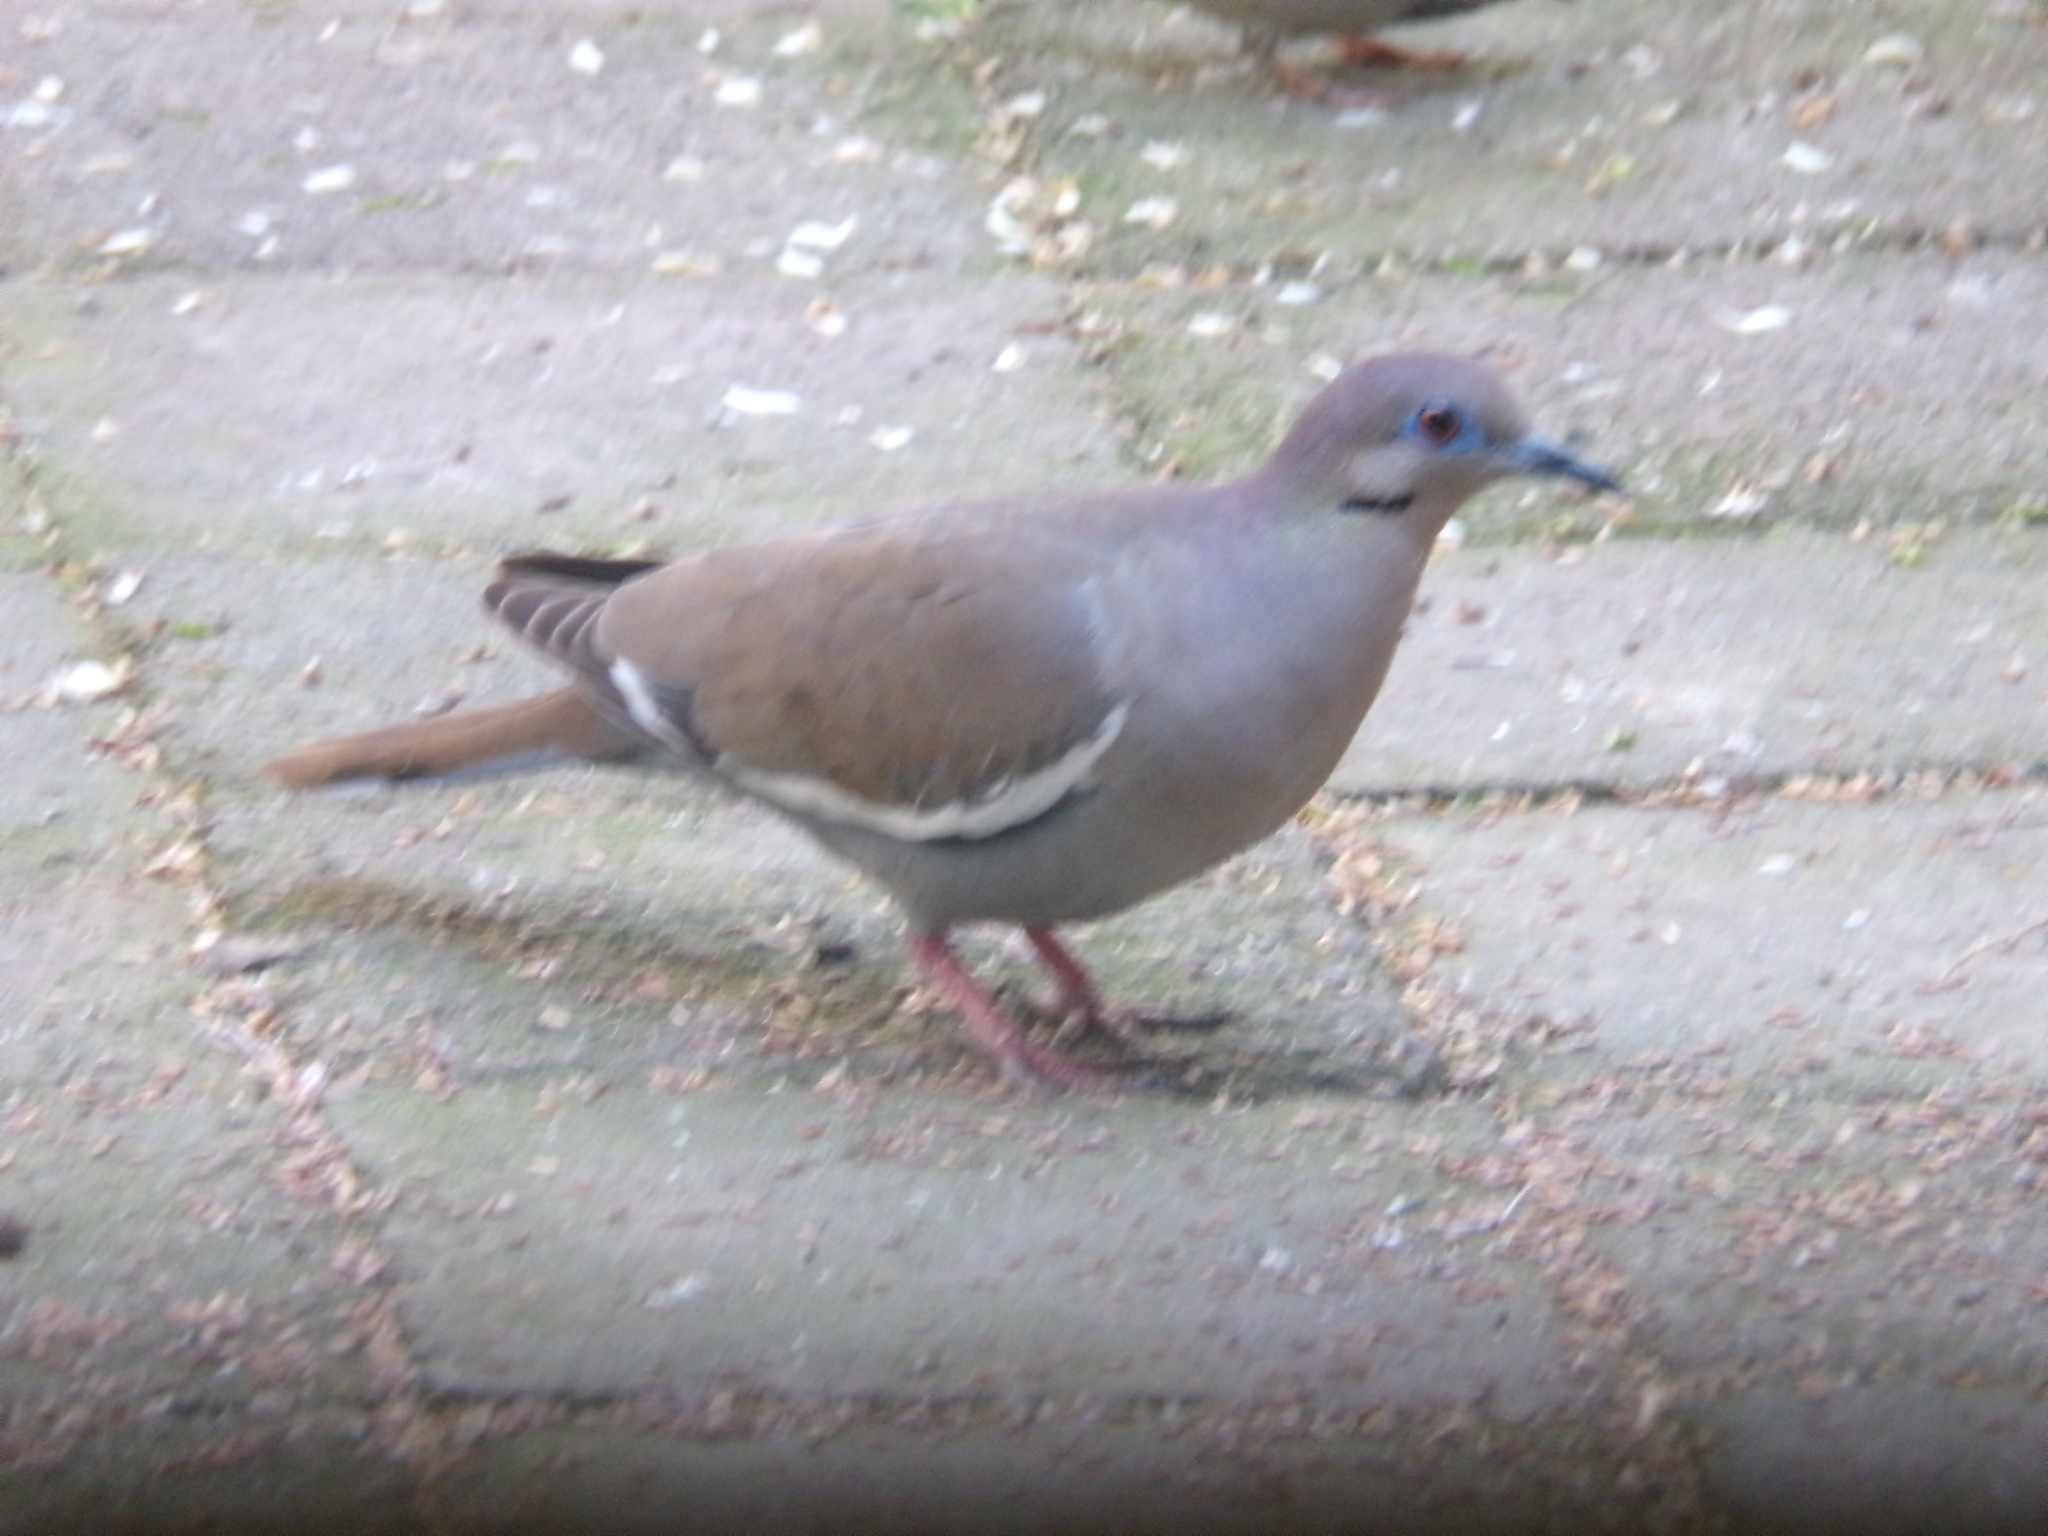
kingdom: Animalia
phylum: Chordata
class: Aves
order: Columbiformes
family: Columbidae
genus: Zenaida
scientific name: Zenaida asiatica
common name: White-winged dove
